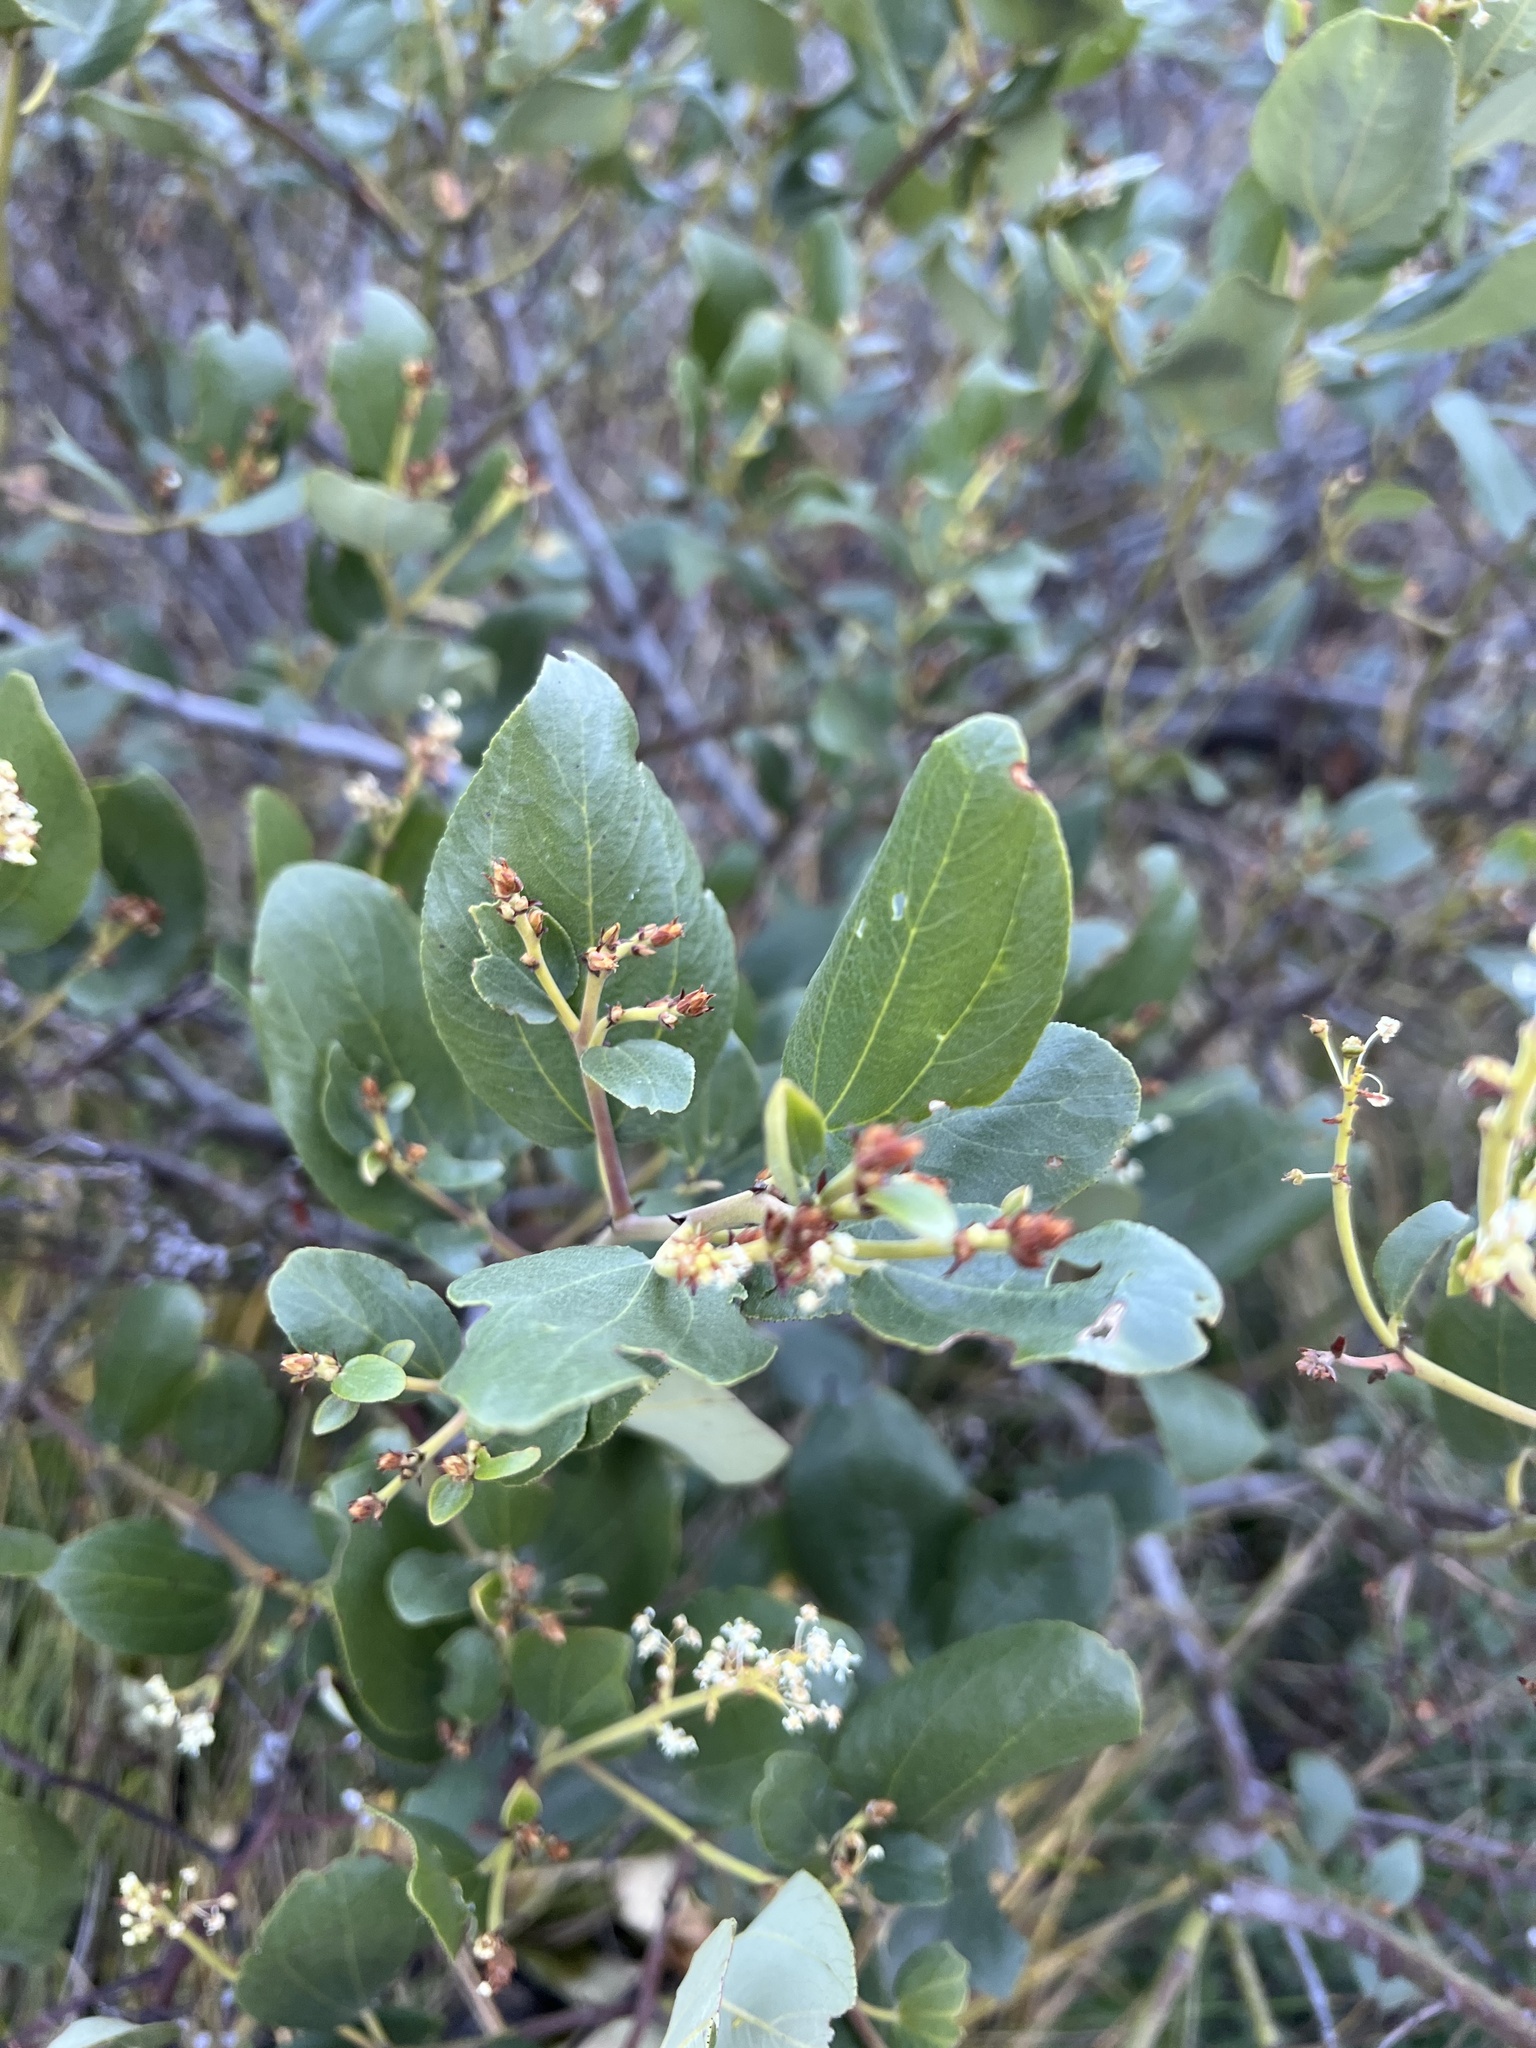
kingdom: Plantae
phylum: Tracheophyta
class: Magnoliopsida
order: Rosales
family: Rhamnaceae
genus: Ceanothus
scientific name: Ceanothus velutinus
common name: Snowbrush
